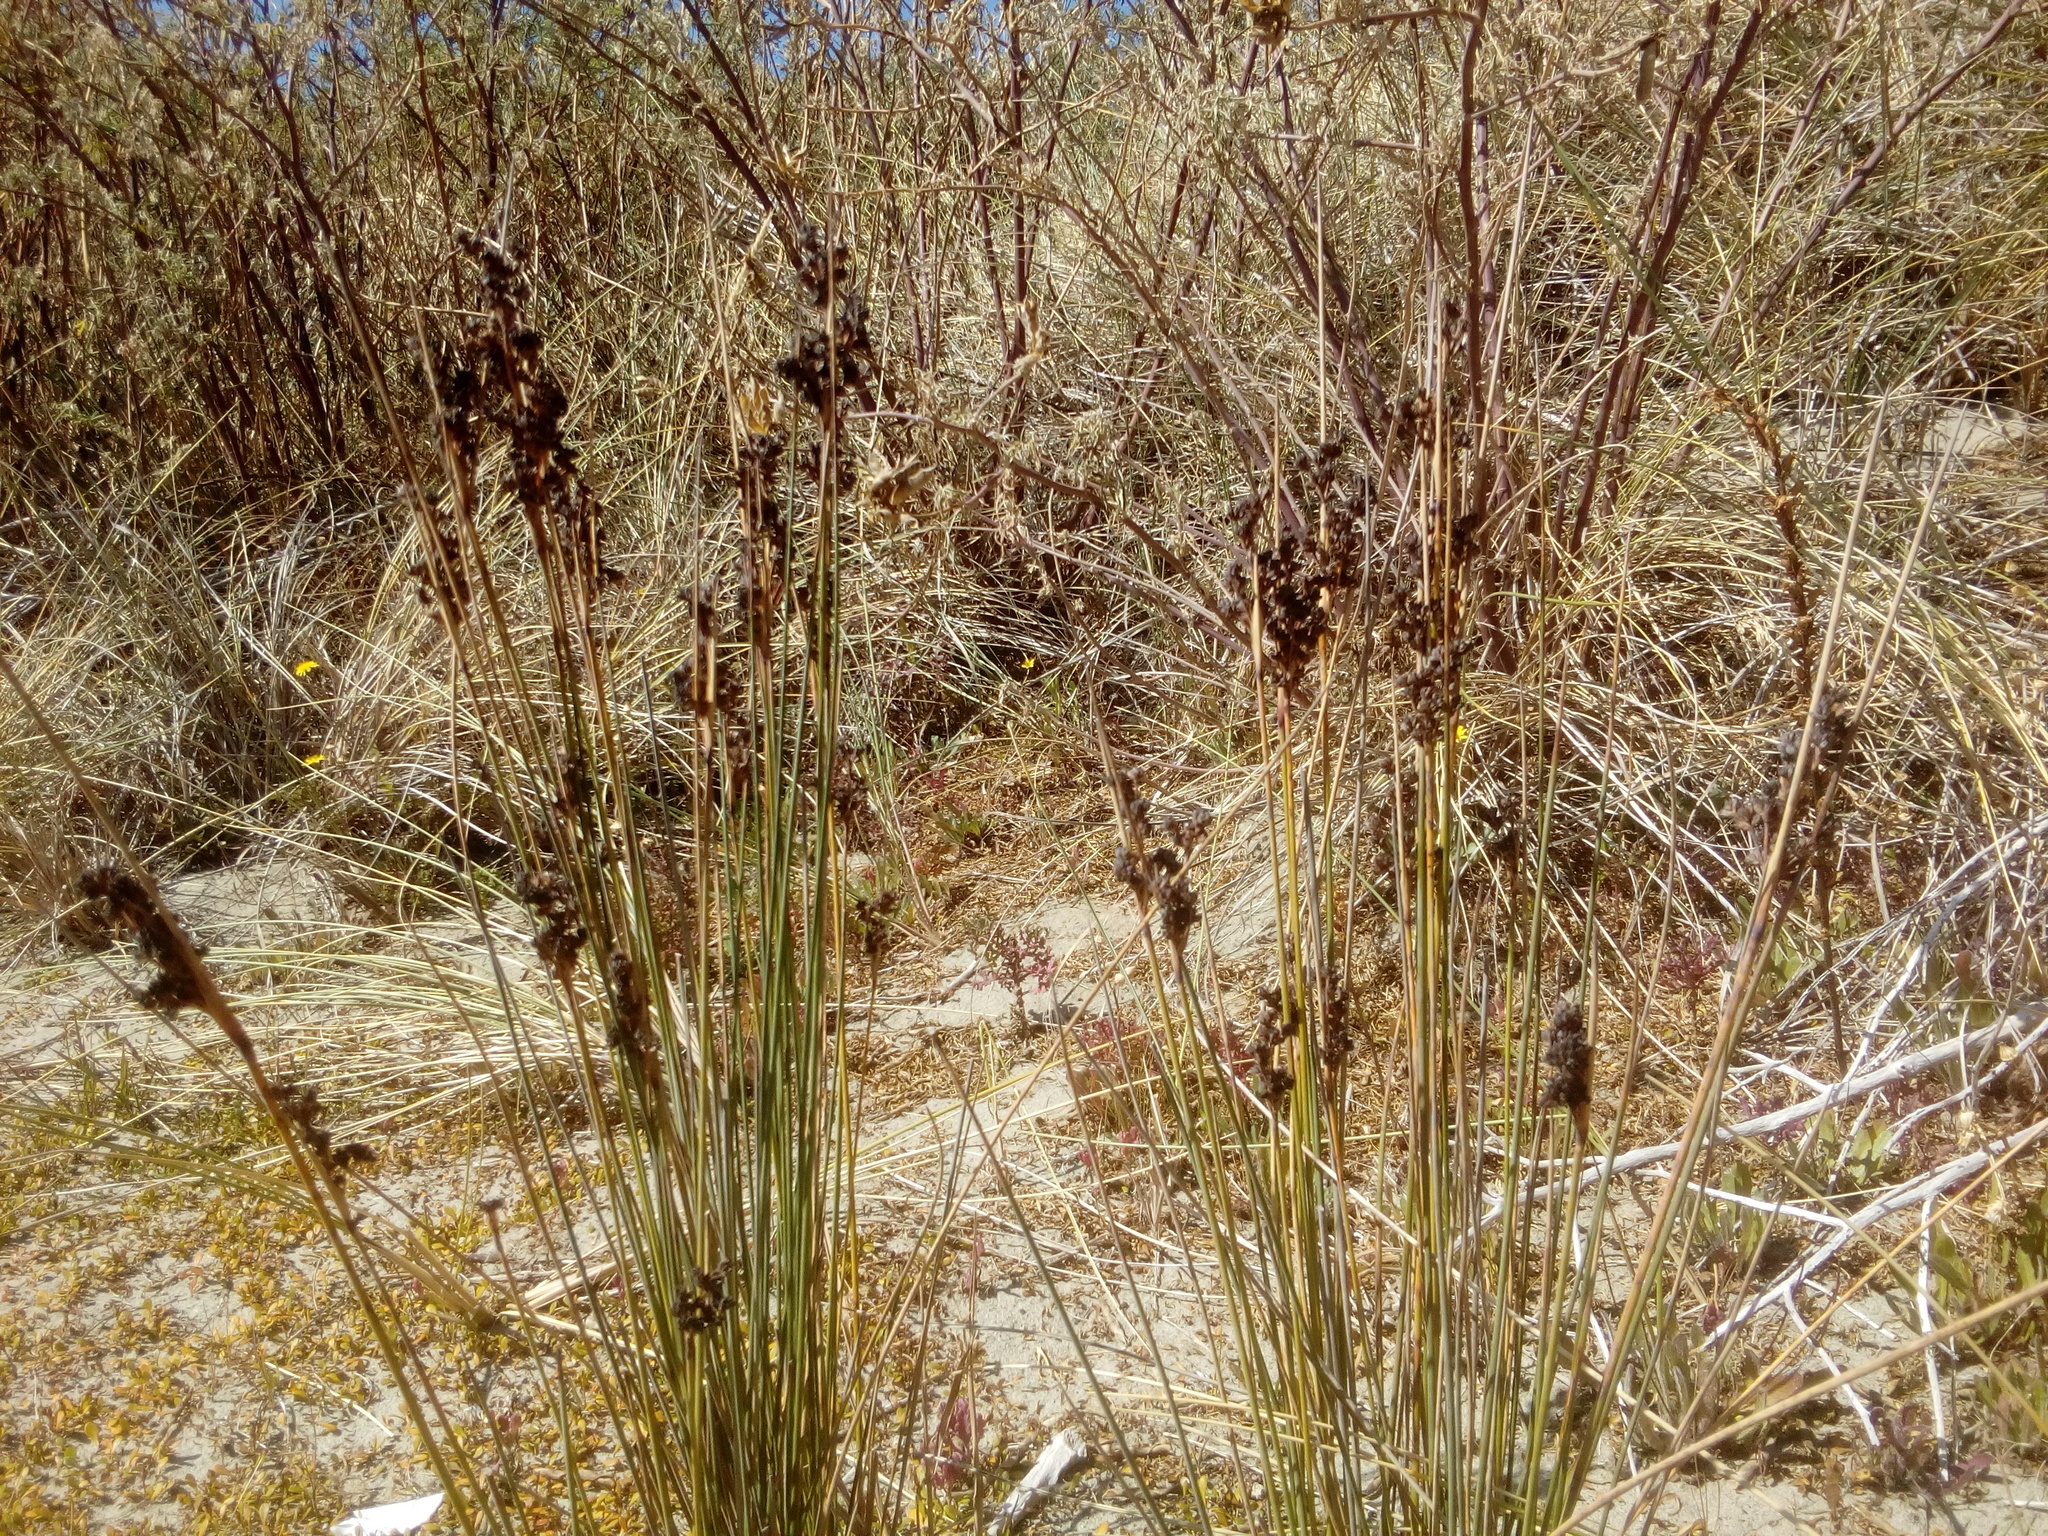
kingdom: Plantae
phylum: Tracheophyta
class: Liliopsida
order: Poales
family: Juncaceae
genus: Juncus
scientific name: Juncus kraussii
